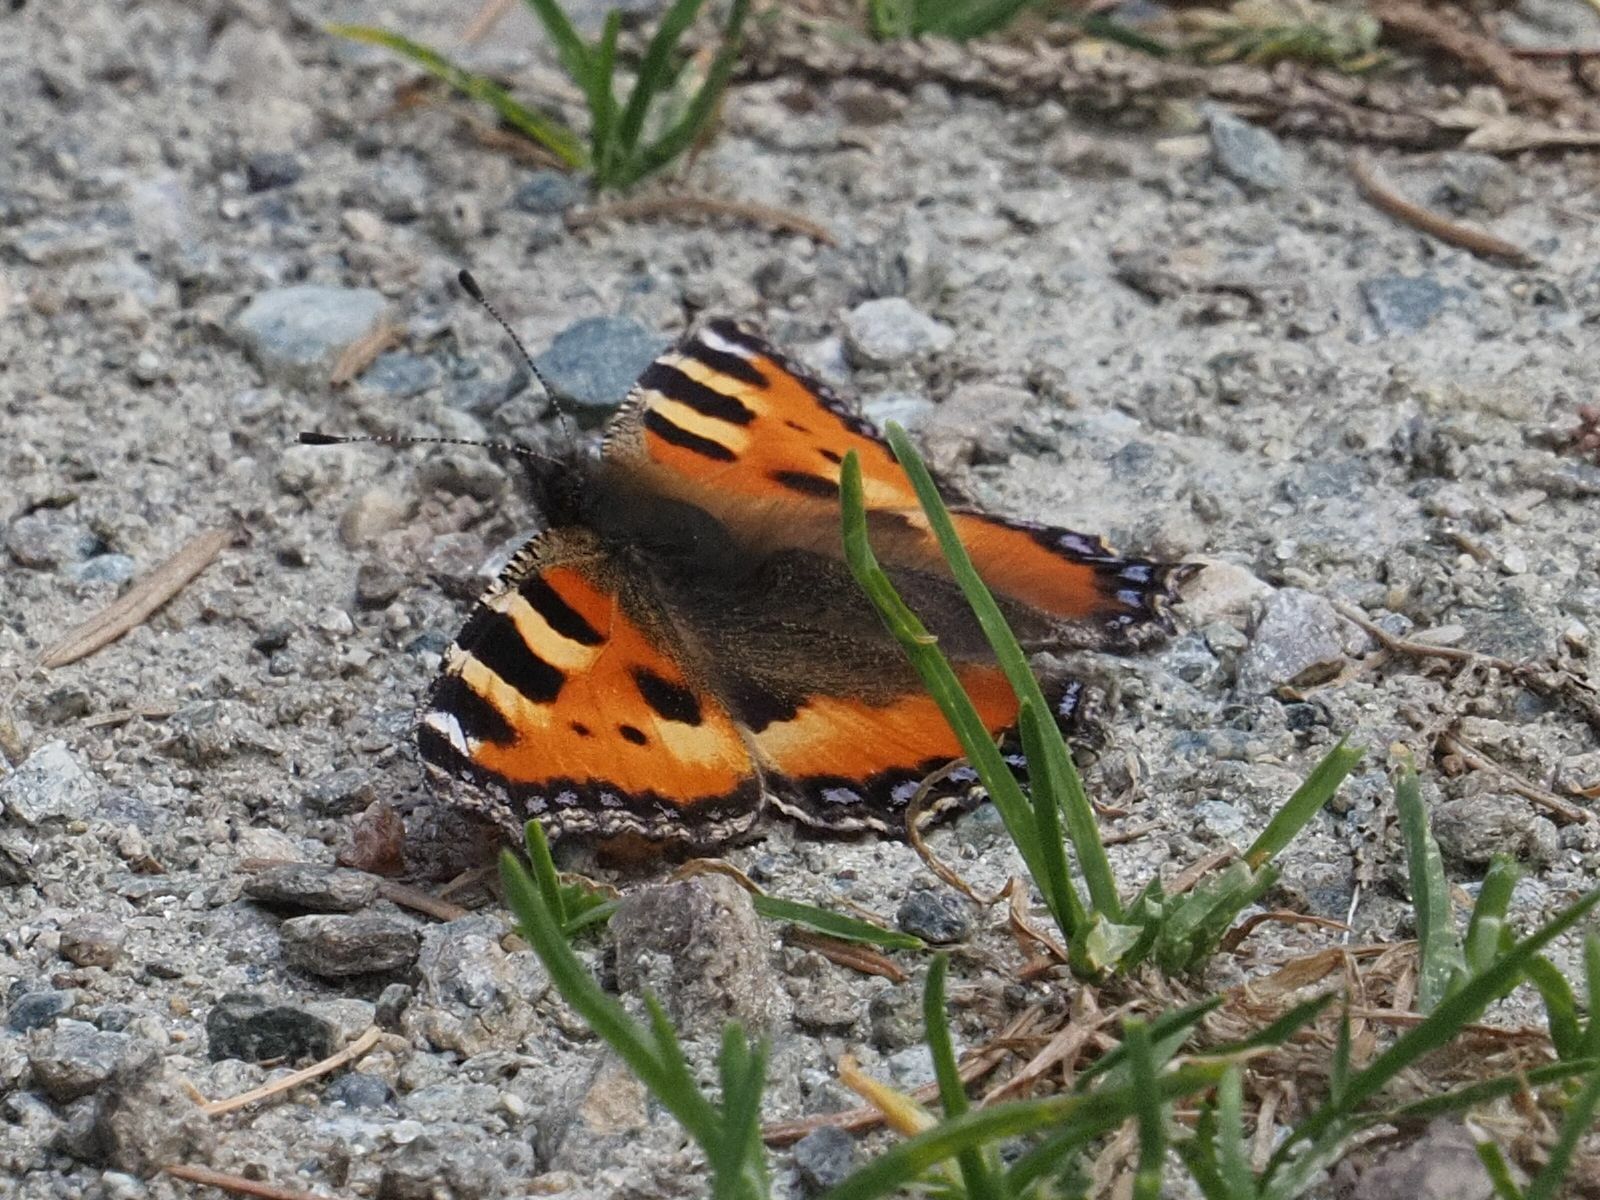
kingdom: Animalia
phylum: Arthropoda
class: Insecta
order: Lepidoptera
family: Nymphalidae
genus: Aglais
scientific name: Aglais urticae
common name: Small tortoiseshell
